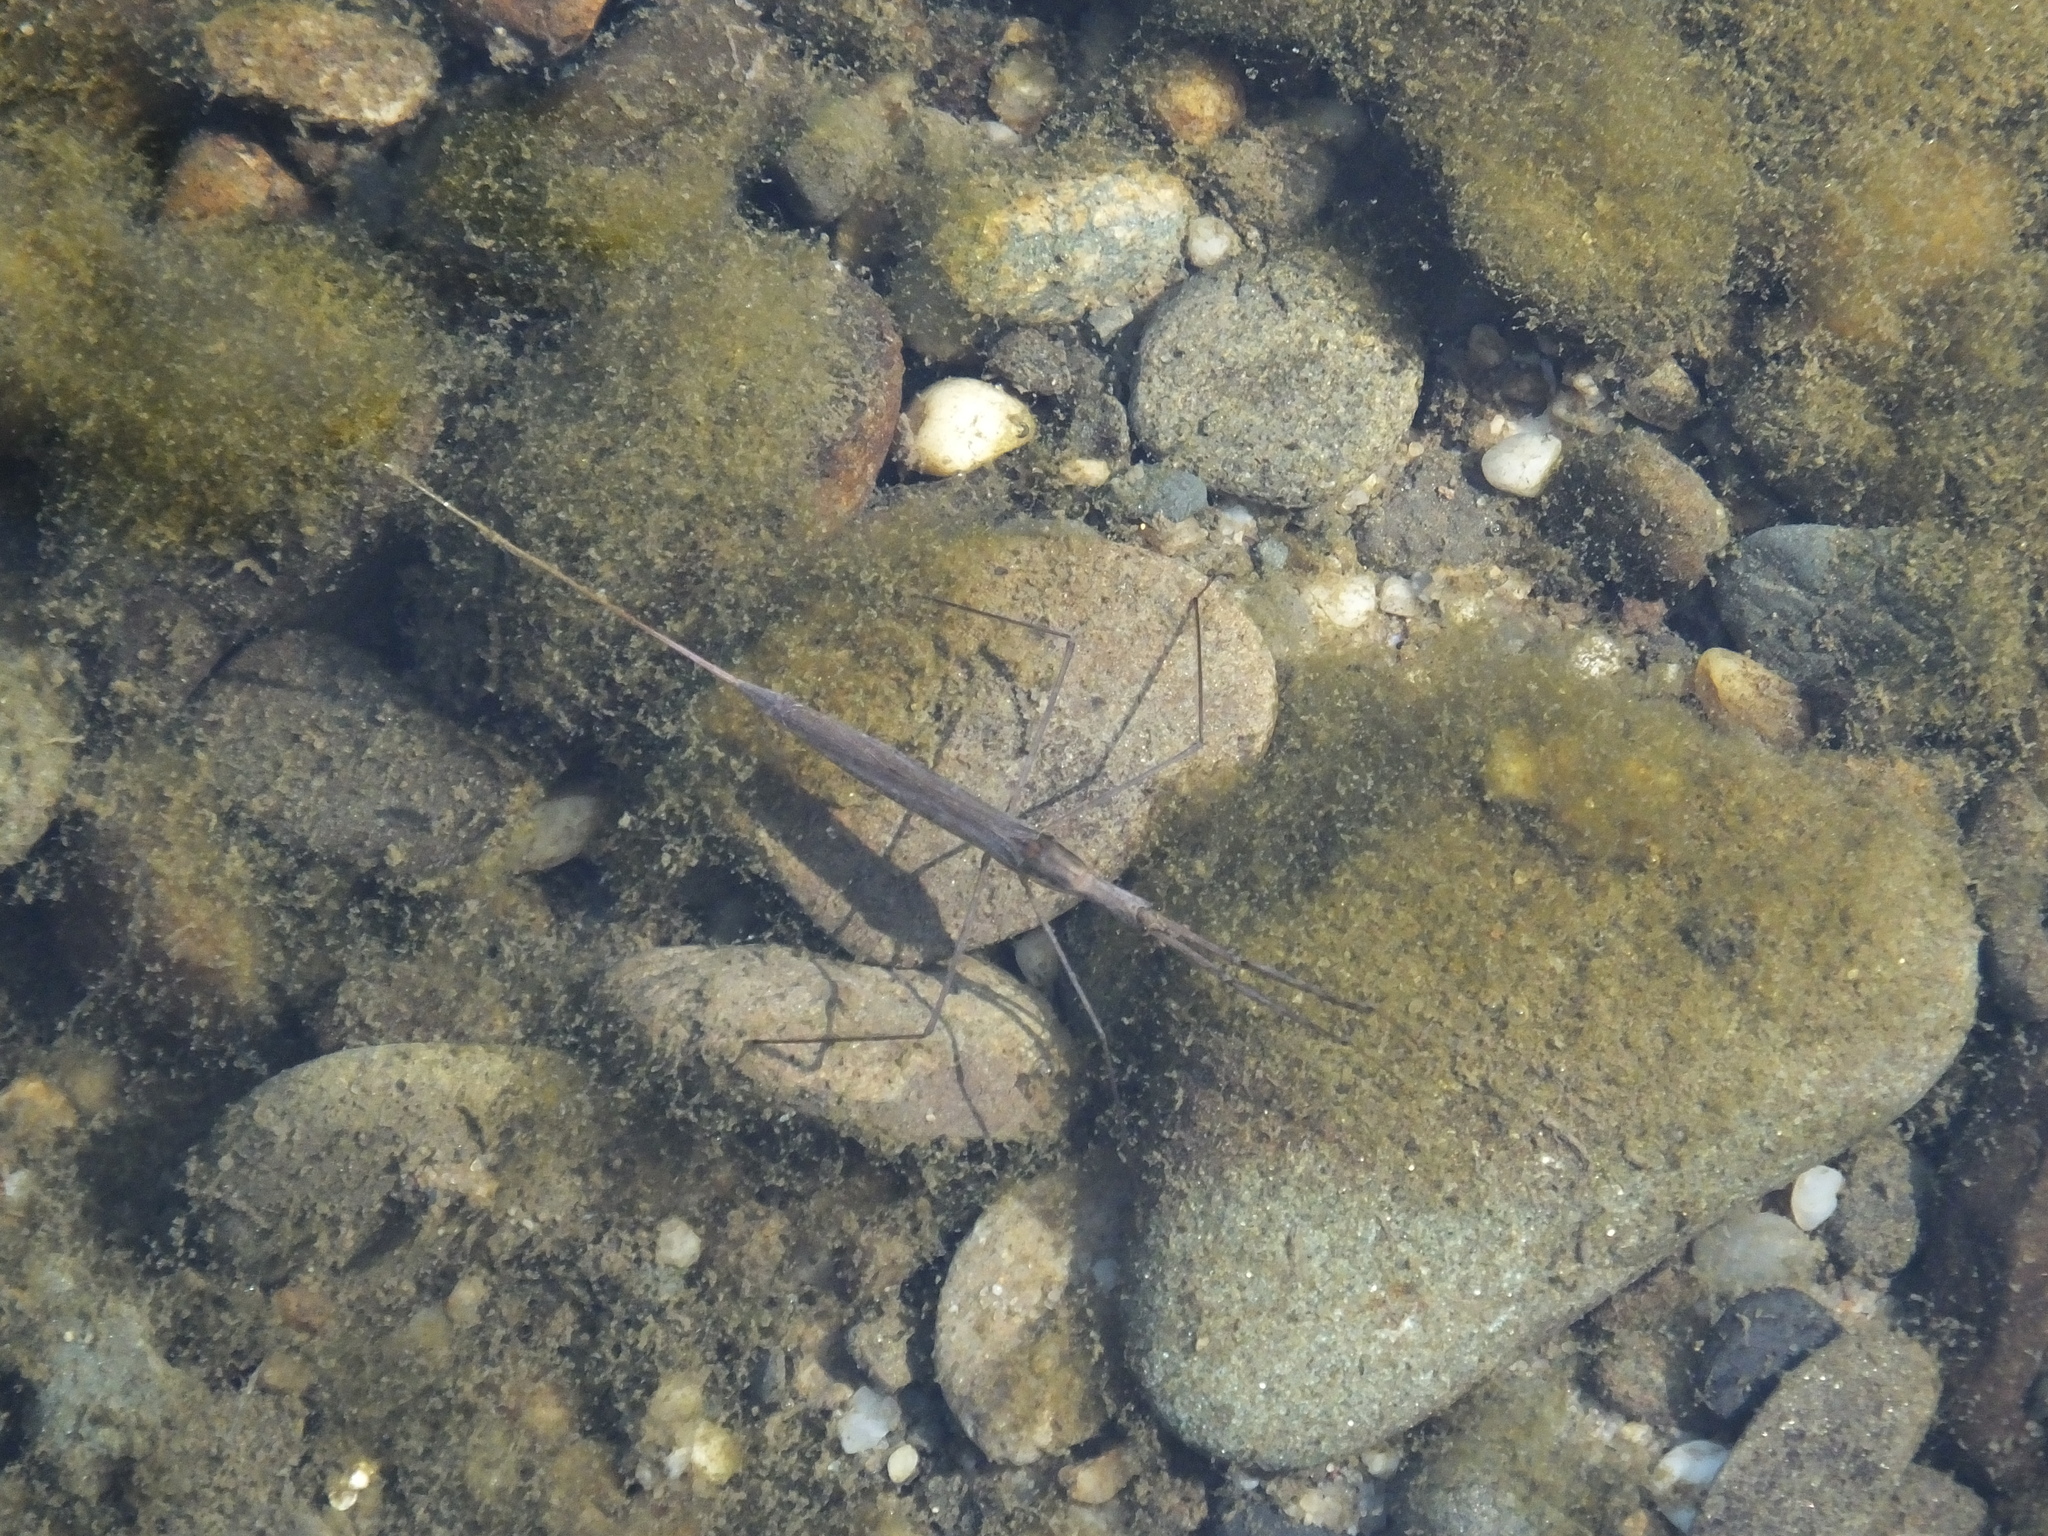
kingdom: Animalia
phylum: Arthropoda
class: Insecta
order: Hemiptera
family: Nepidae
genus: Ranatra
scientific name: Ranatra linearis
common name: Water stick insect
